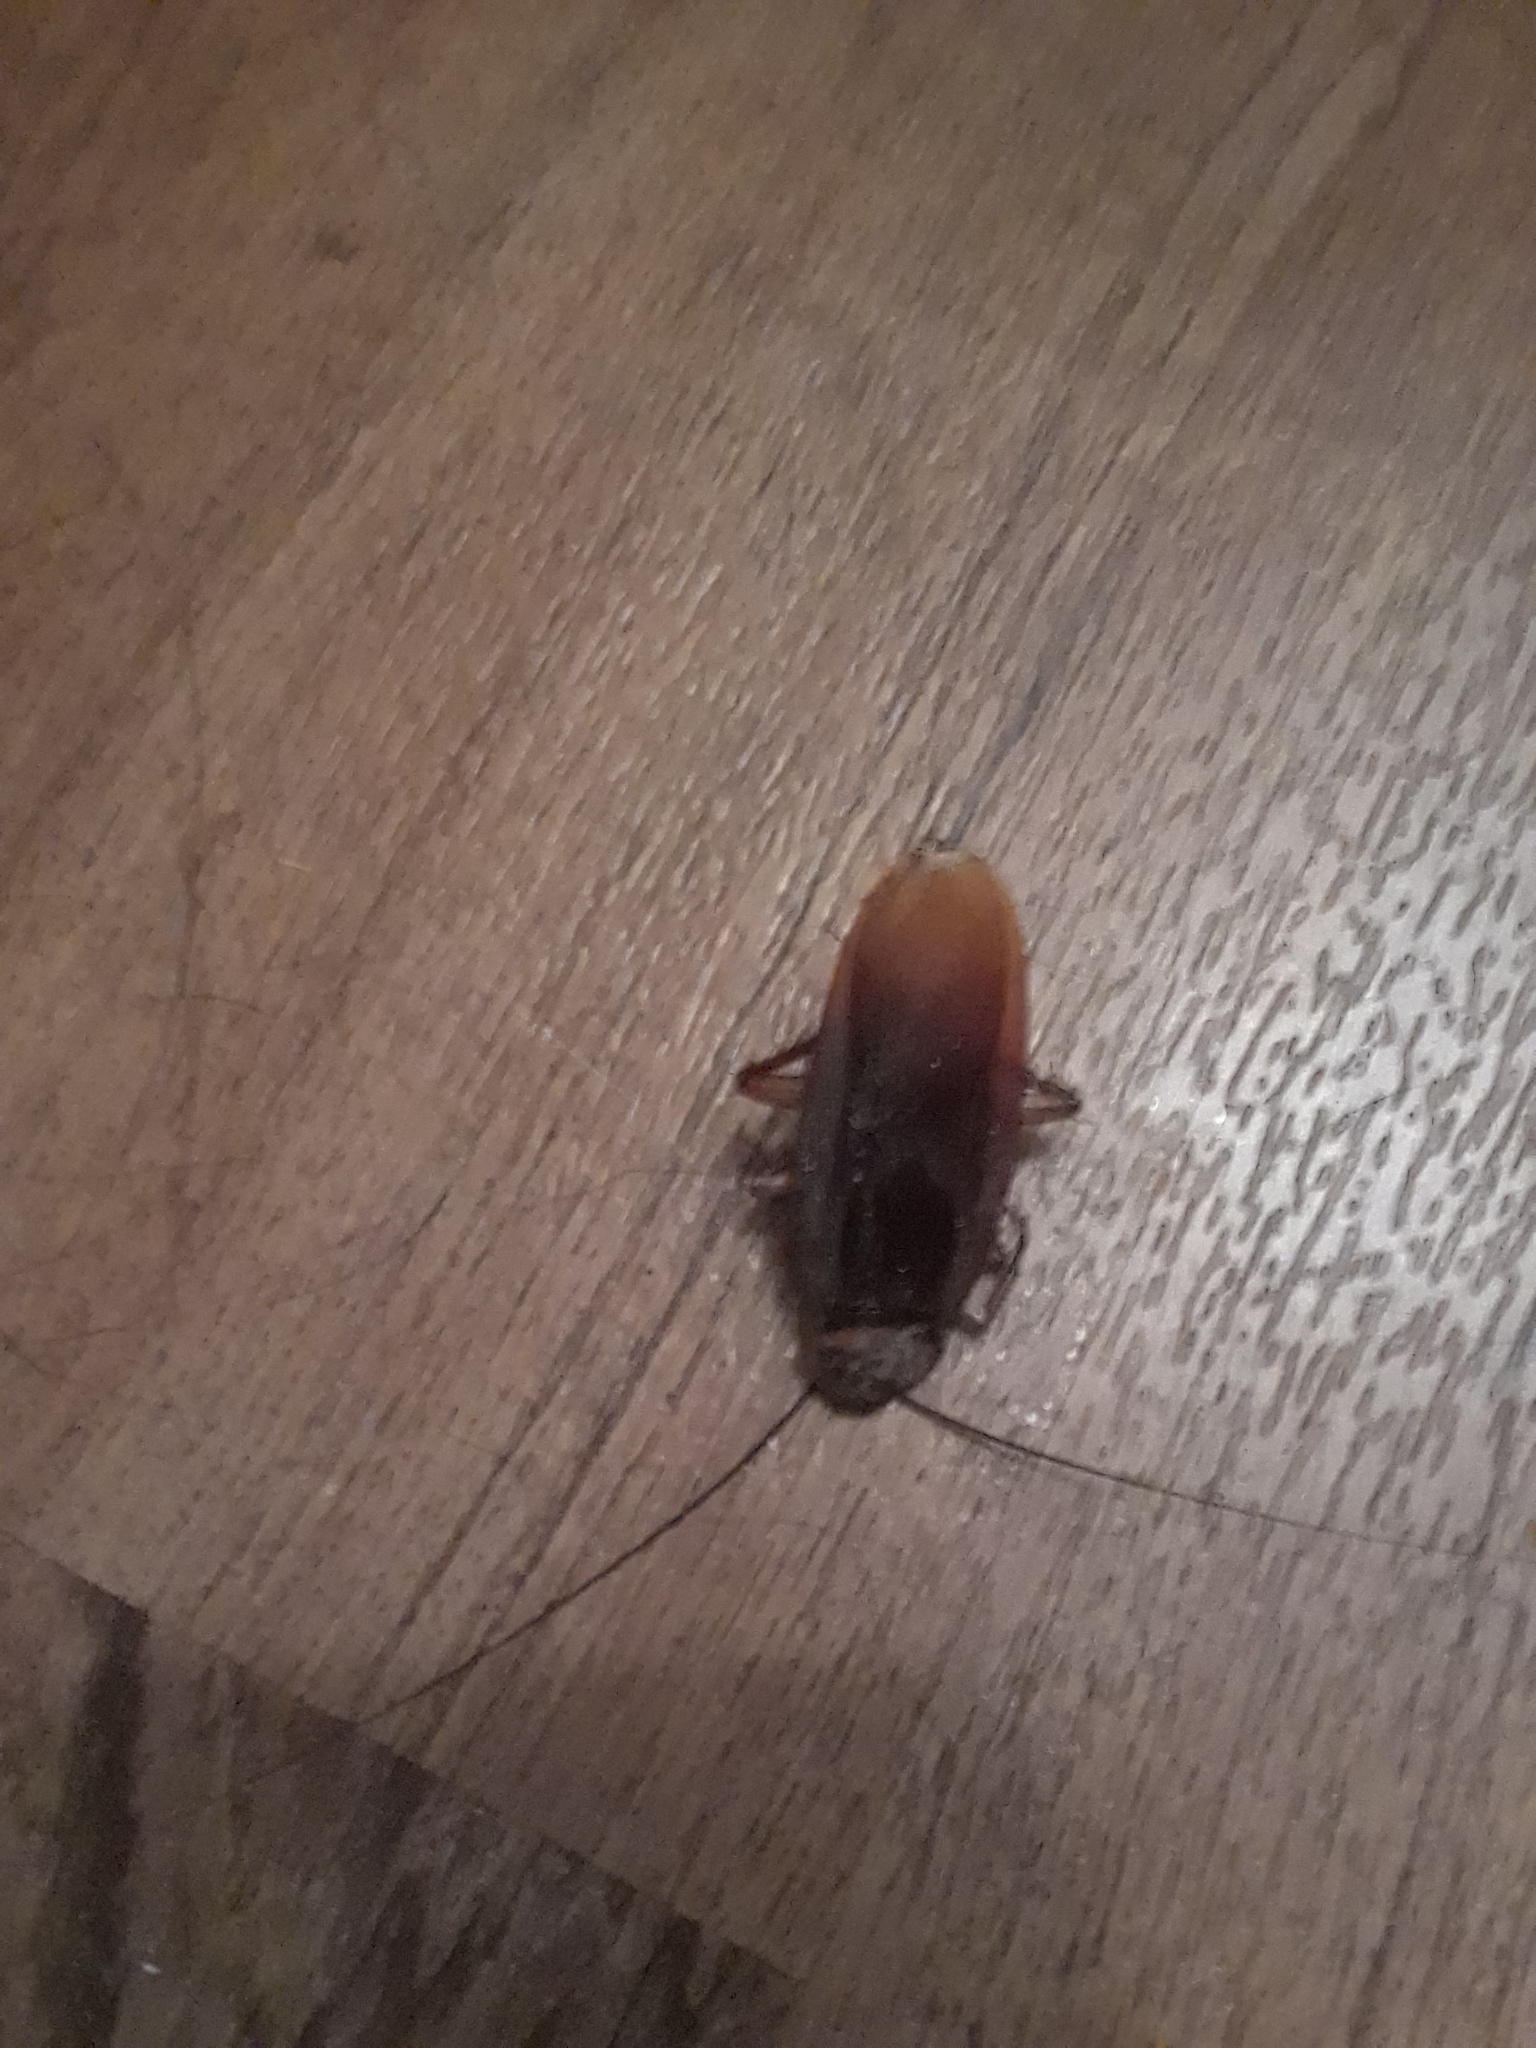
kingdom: Animalia
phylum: Arthropoda
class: Insecta
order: Blattodea
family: Blattidae
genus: Periplaneta
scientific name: Periplaneta americana
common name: American cockroach
